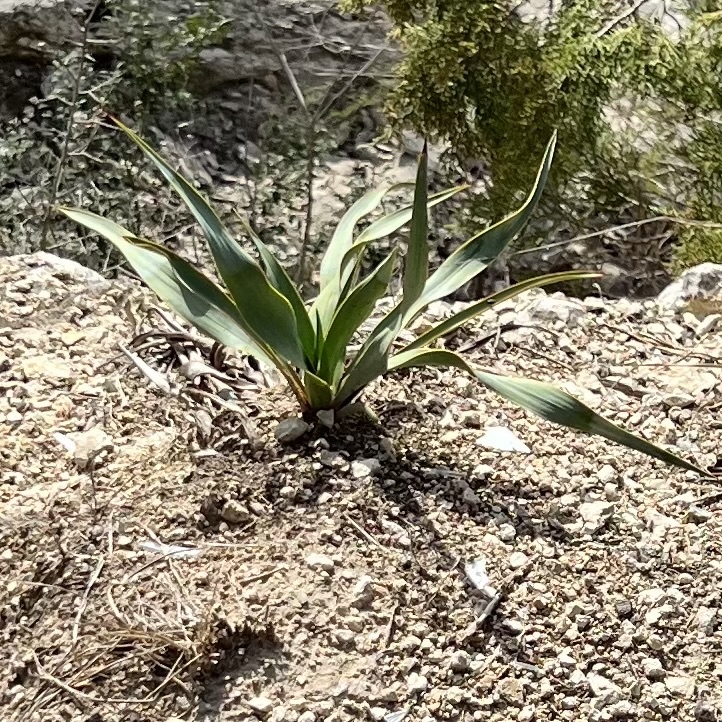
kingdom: Plantae
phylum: Tracheophyta
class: Liliopsida
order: Asparagales
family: Asparagaceae
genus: Yucca
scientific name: Yucca rupicola
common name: Twisted-leaf spanish-dagger
